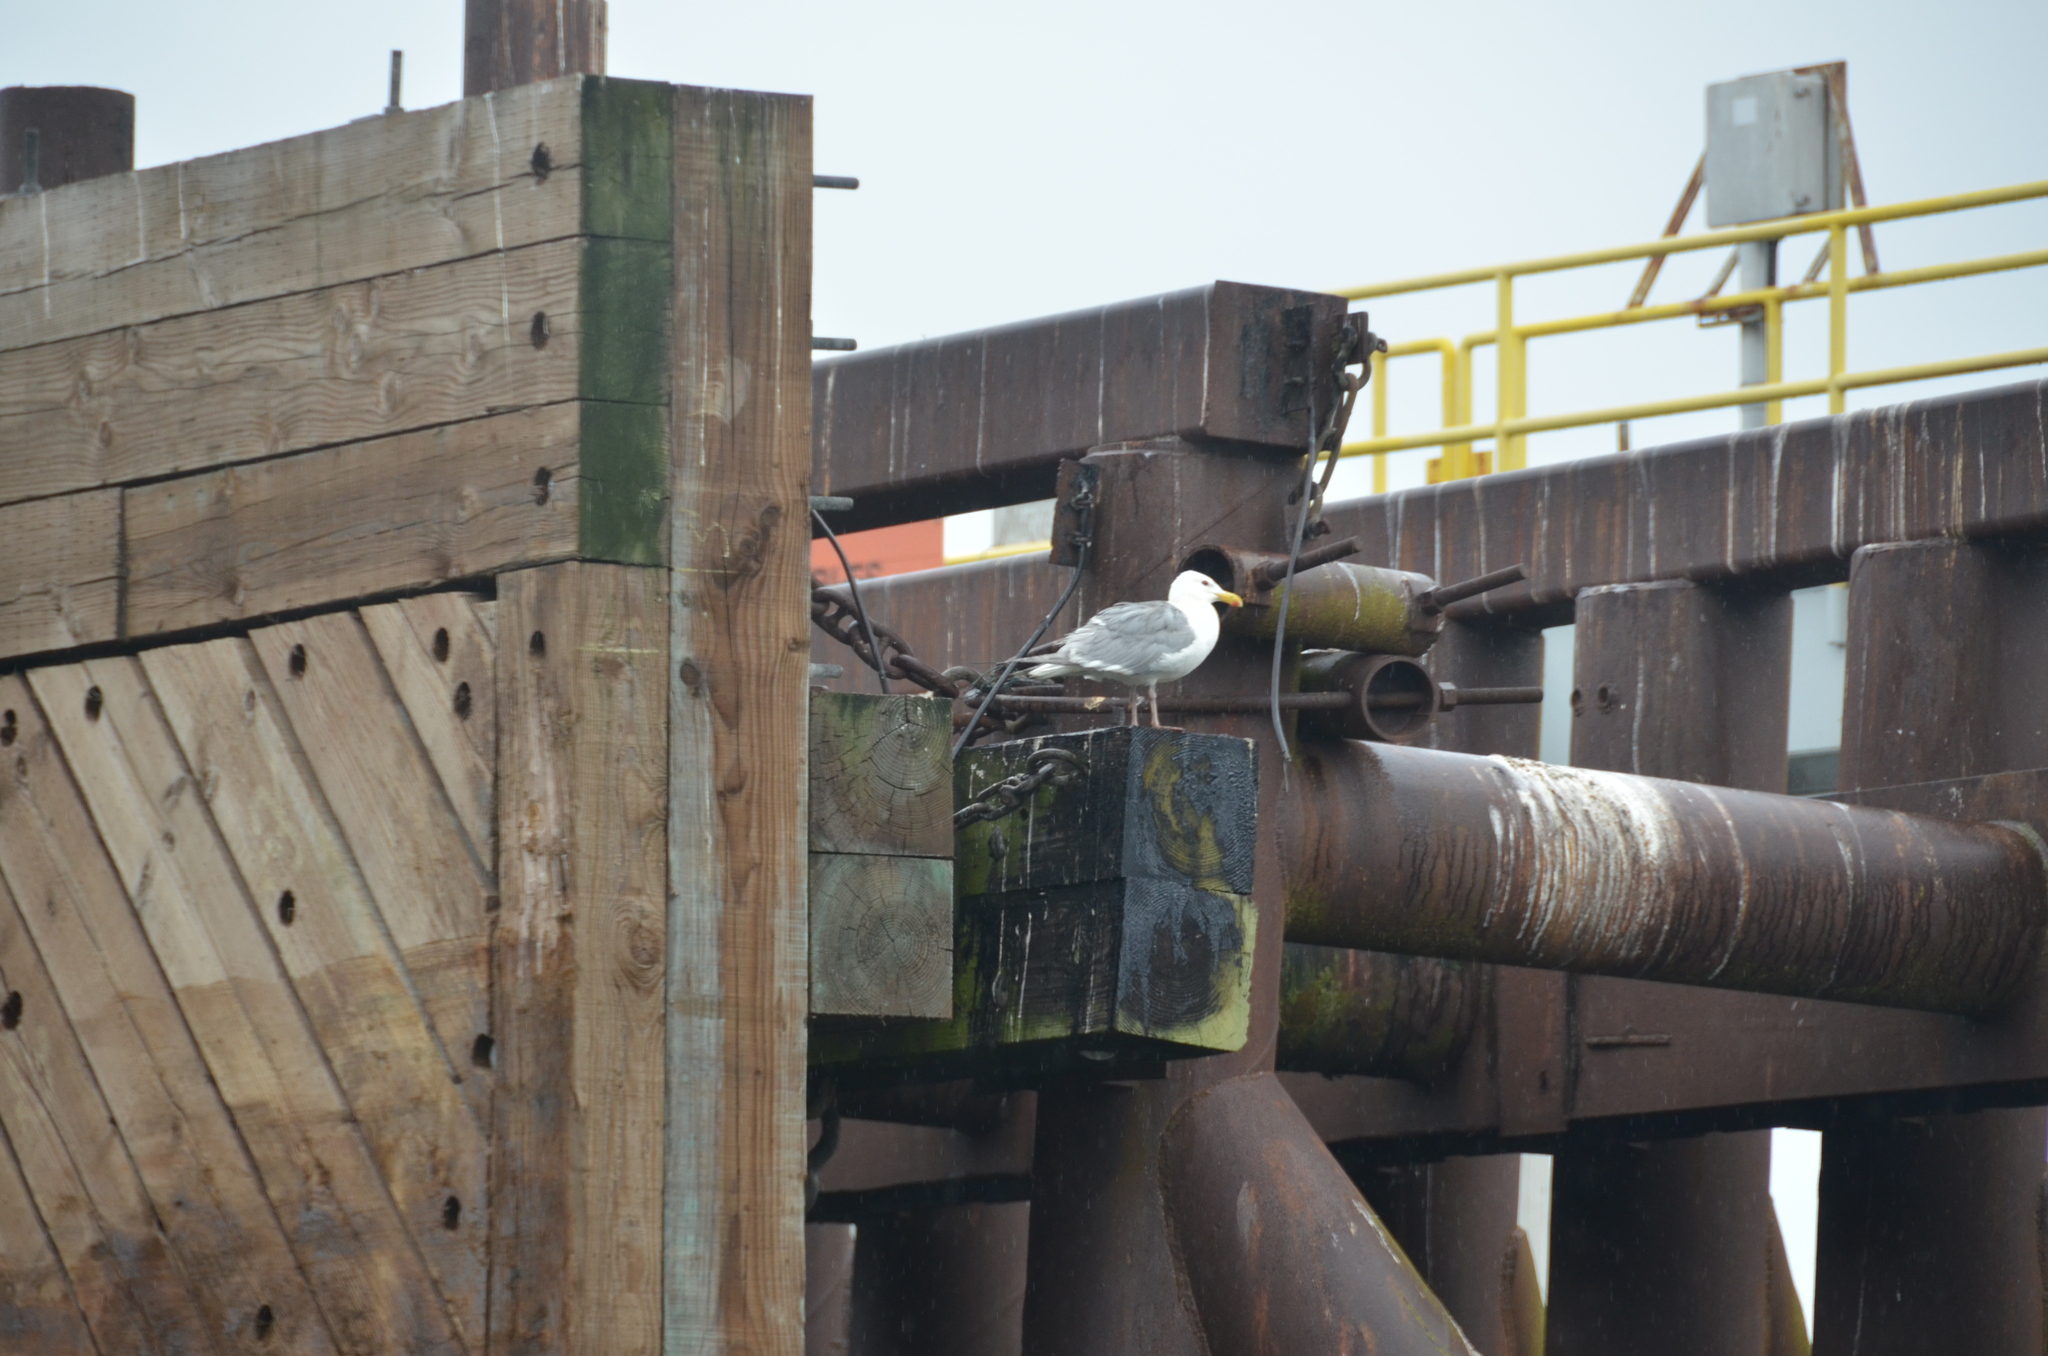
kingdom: Animalia
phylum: Chordata
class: Aves
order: Charadriiformes
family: Laridae
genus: Larus
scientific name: Larus glaucescens
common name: Glaucous-winged gull
